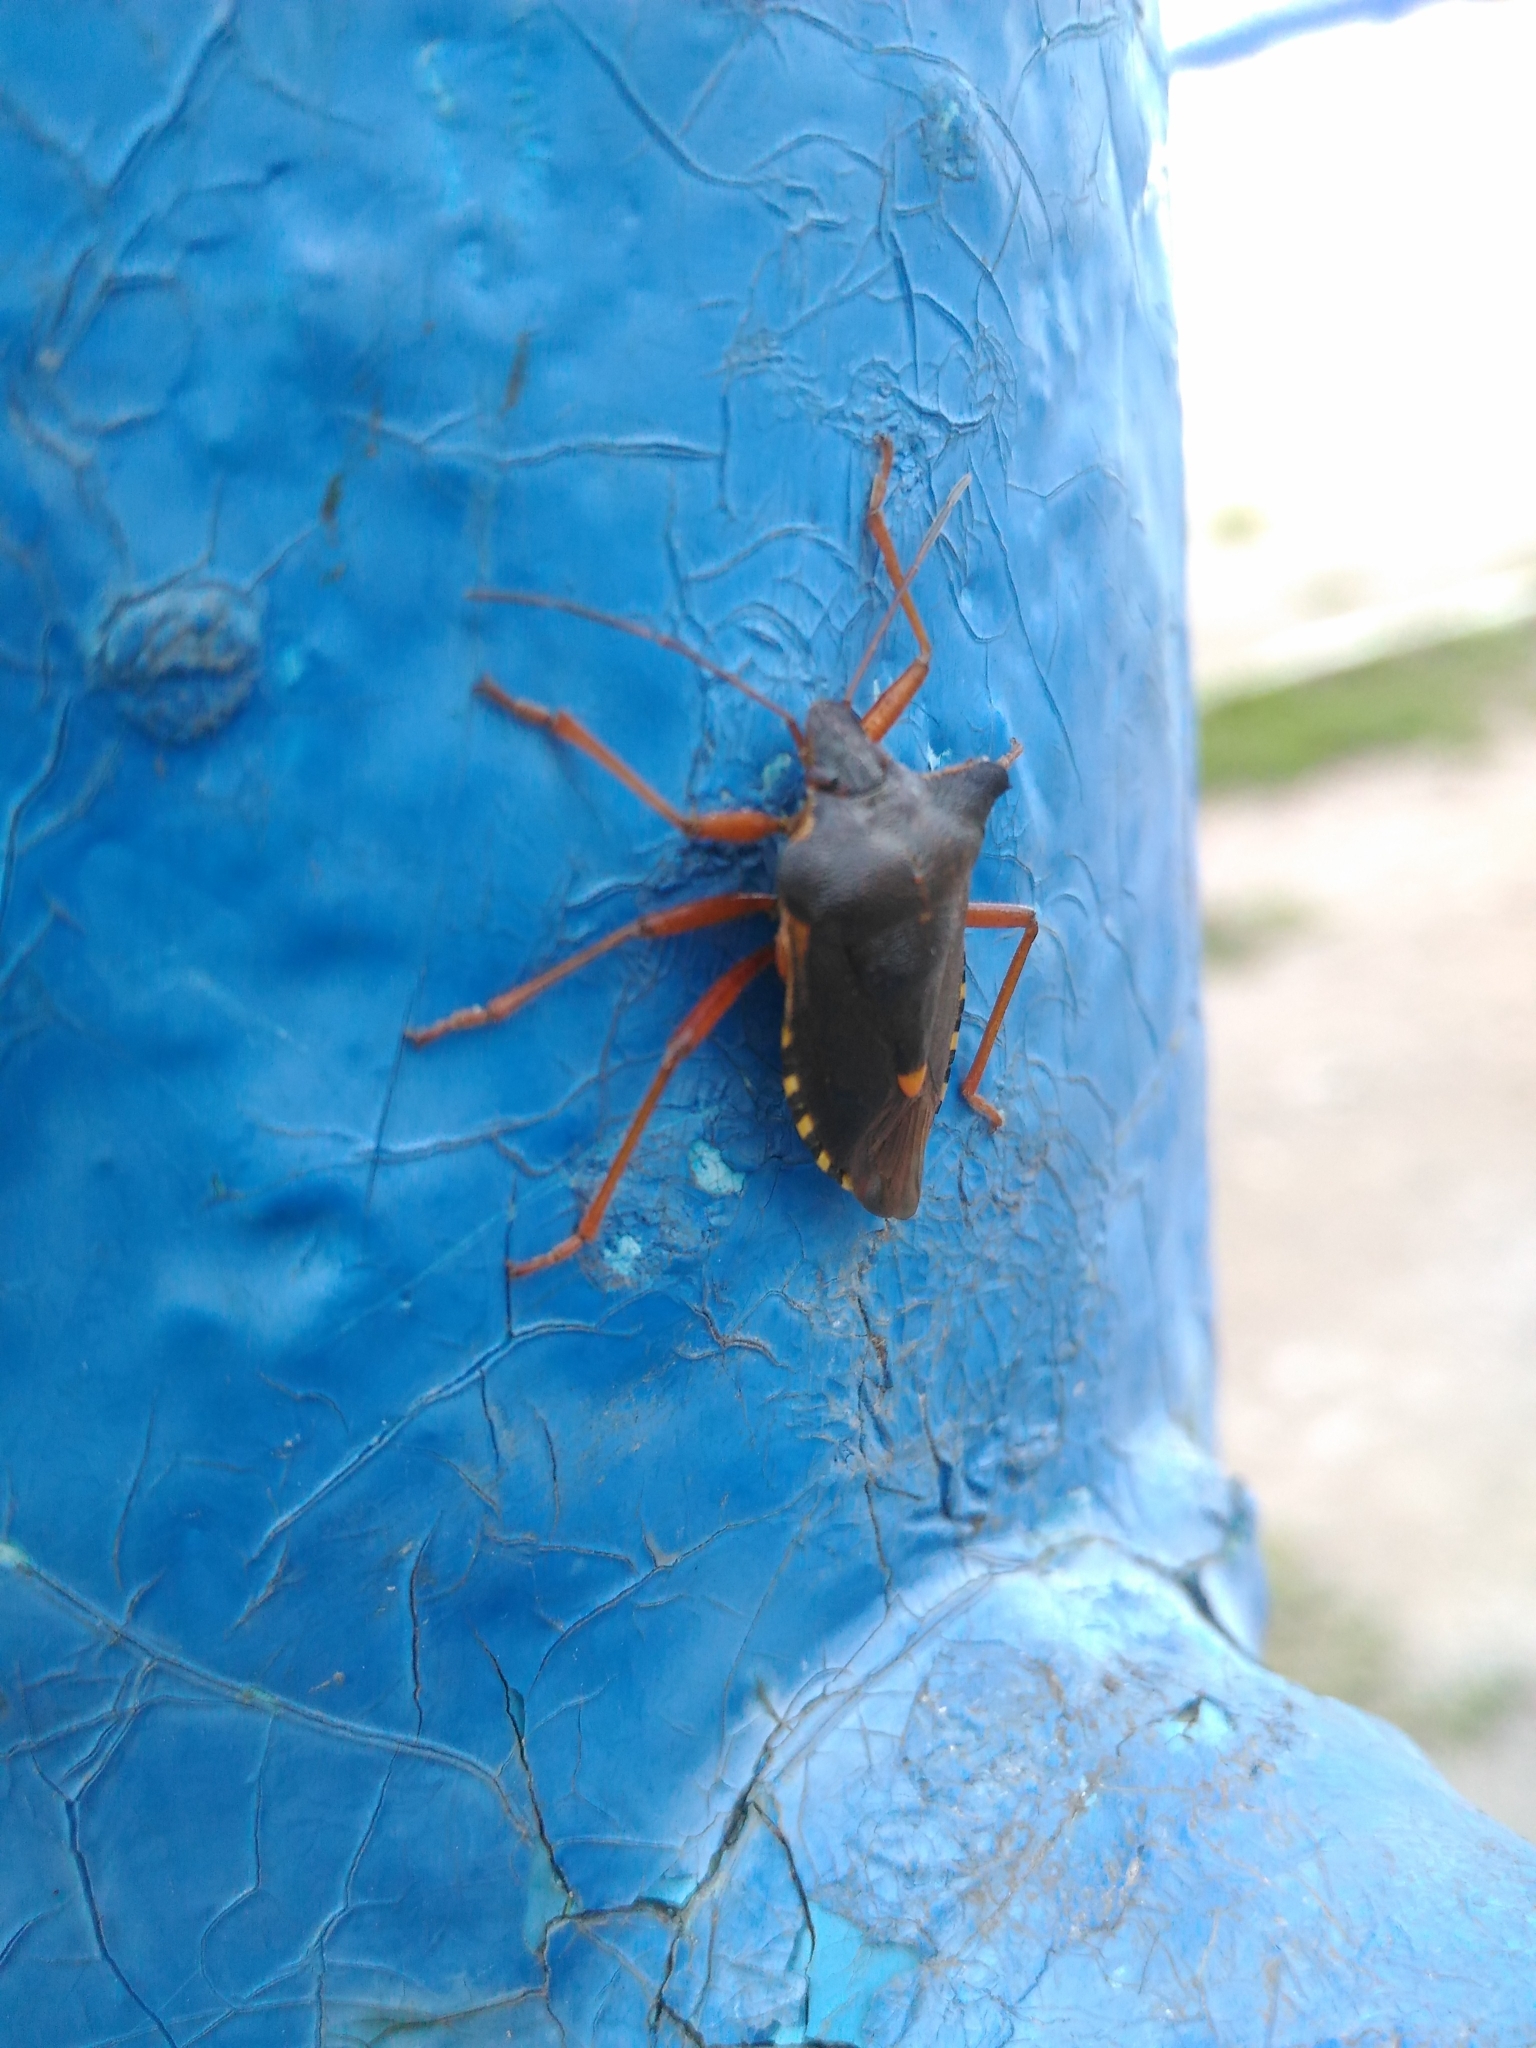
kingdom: Animalia
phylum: Arthropoda
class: Insecta
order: Hemiptera
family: Pentatomidae
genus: Pentatoma
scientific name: Pentatoma rufipes
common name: Forest bug
